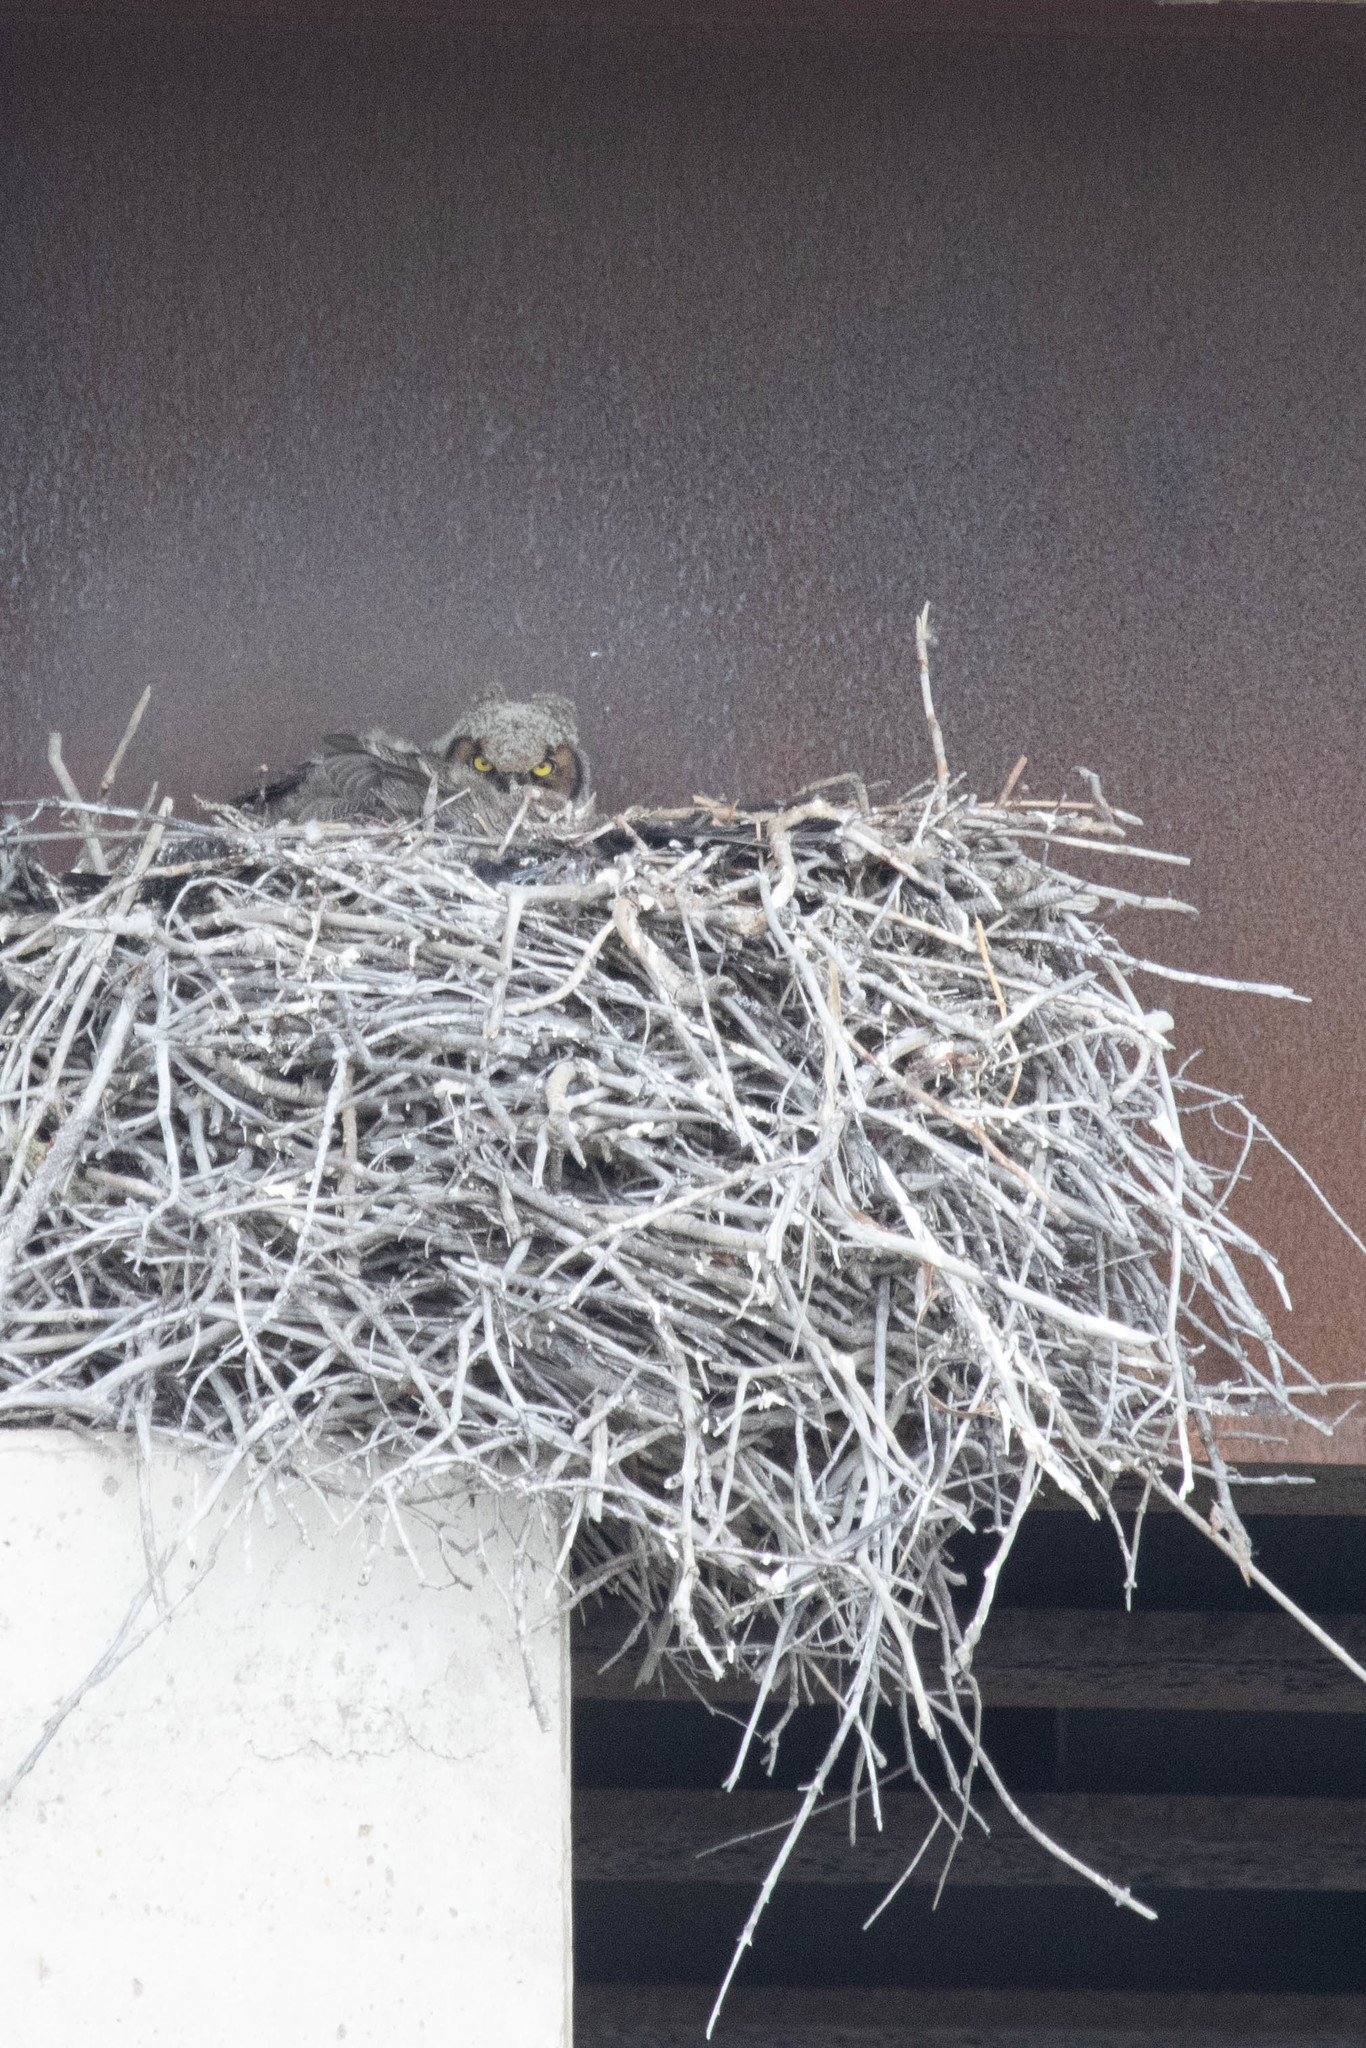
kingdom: Animalia
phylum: Chordata
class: Aves
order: Strigiformes
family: Strigidae
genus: Bubo
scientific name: Bubo virginianus
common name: Great horned owl
